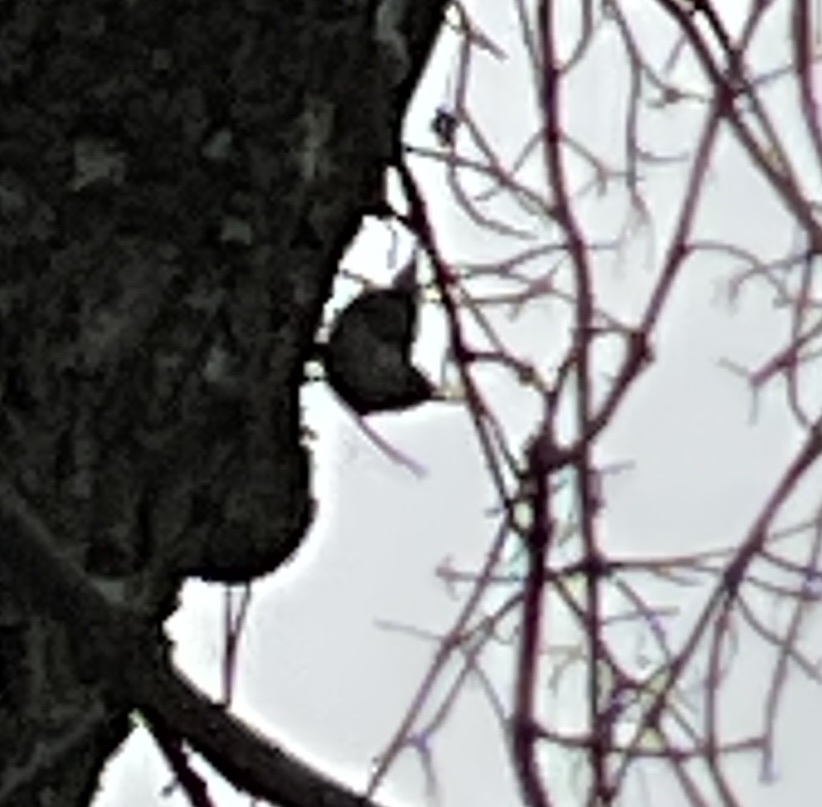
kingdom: Animalia
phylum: Chordata
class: Aves
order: Passeriformes
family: Sittidae
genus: Sitta
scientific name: Sitta carolinensis
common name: White-breasted nuthatch
